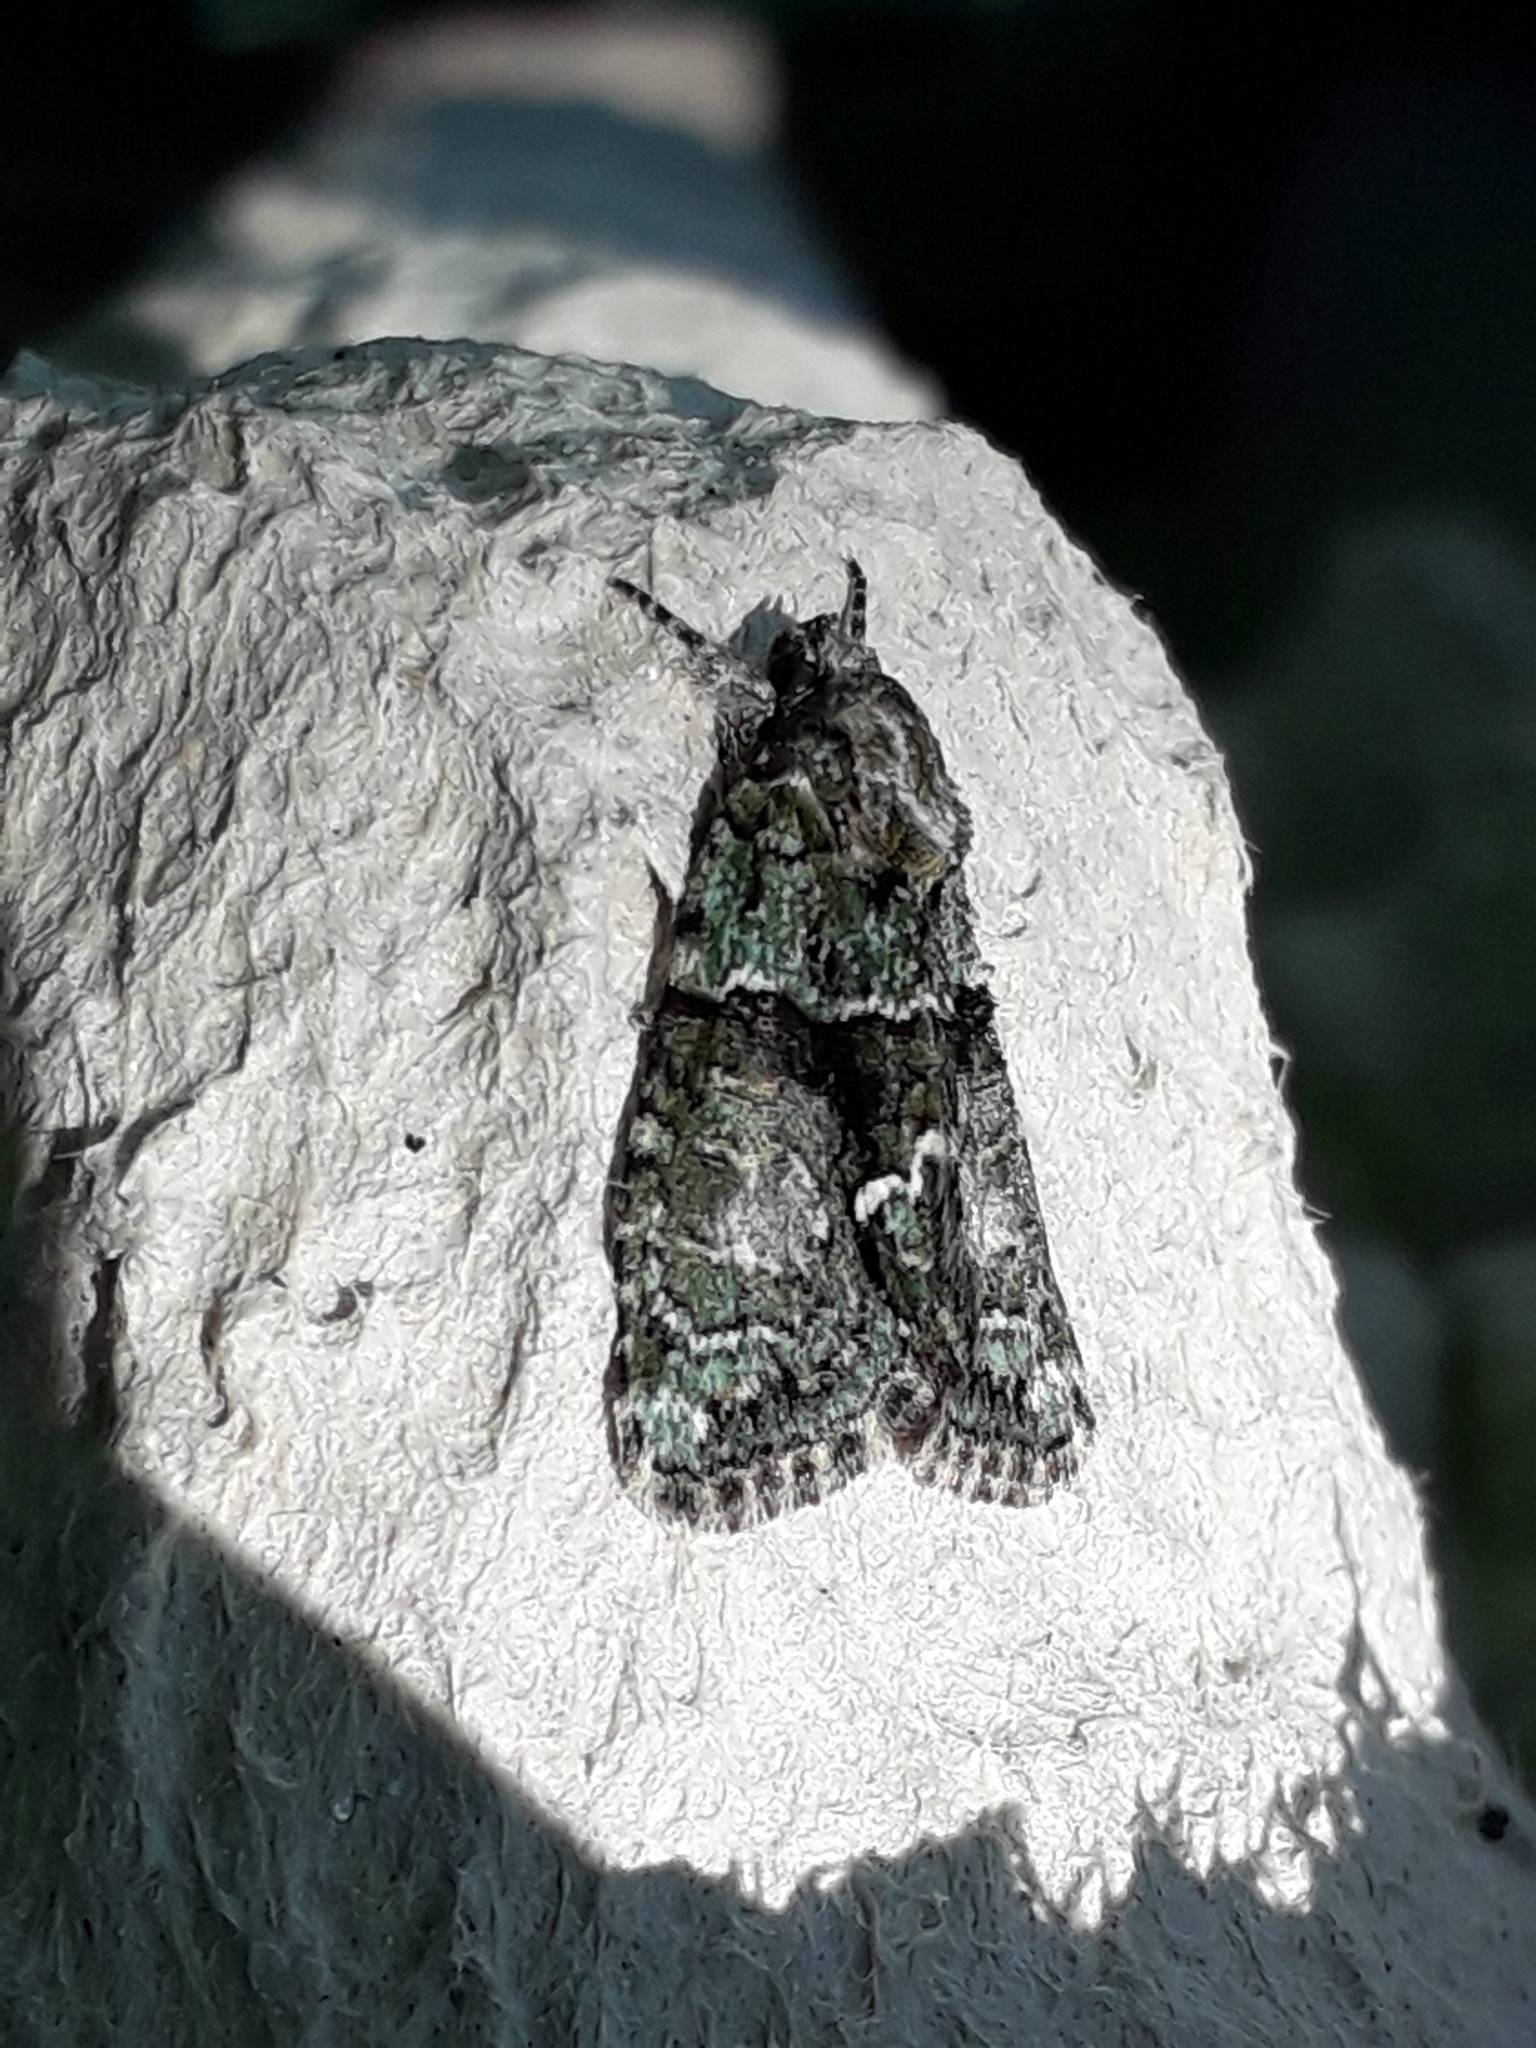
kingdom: Animalia
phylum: Arthropoda
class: Insecta
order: Lepidoptera
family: Noctuidae
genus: Cryphia
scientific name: Cryphia algae
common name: Tree-lichen beauty
